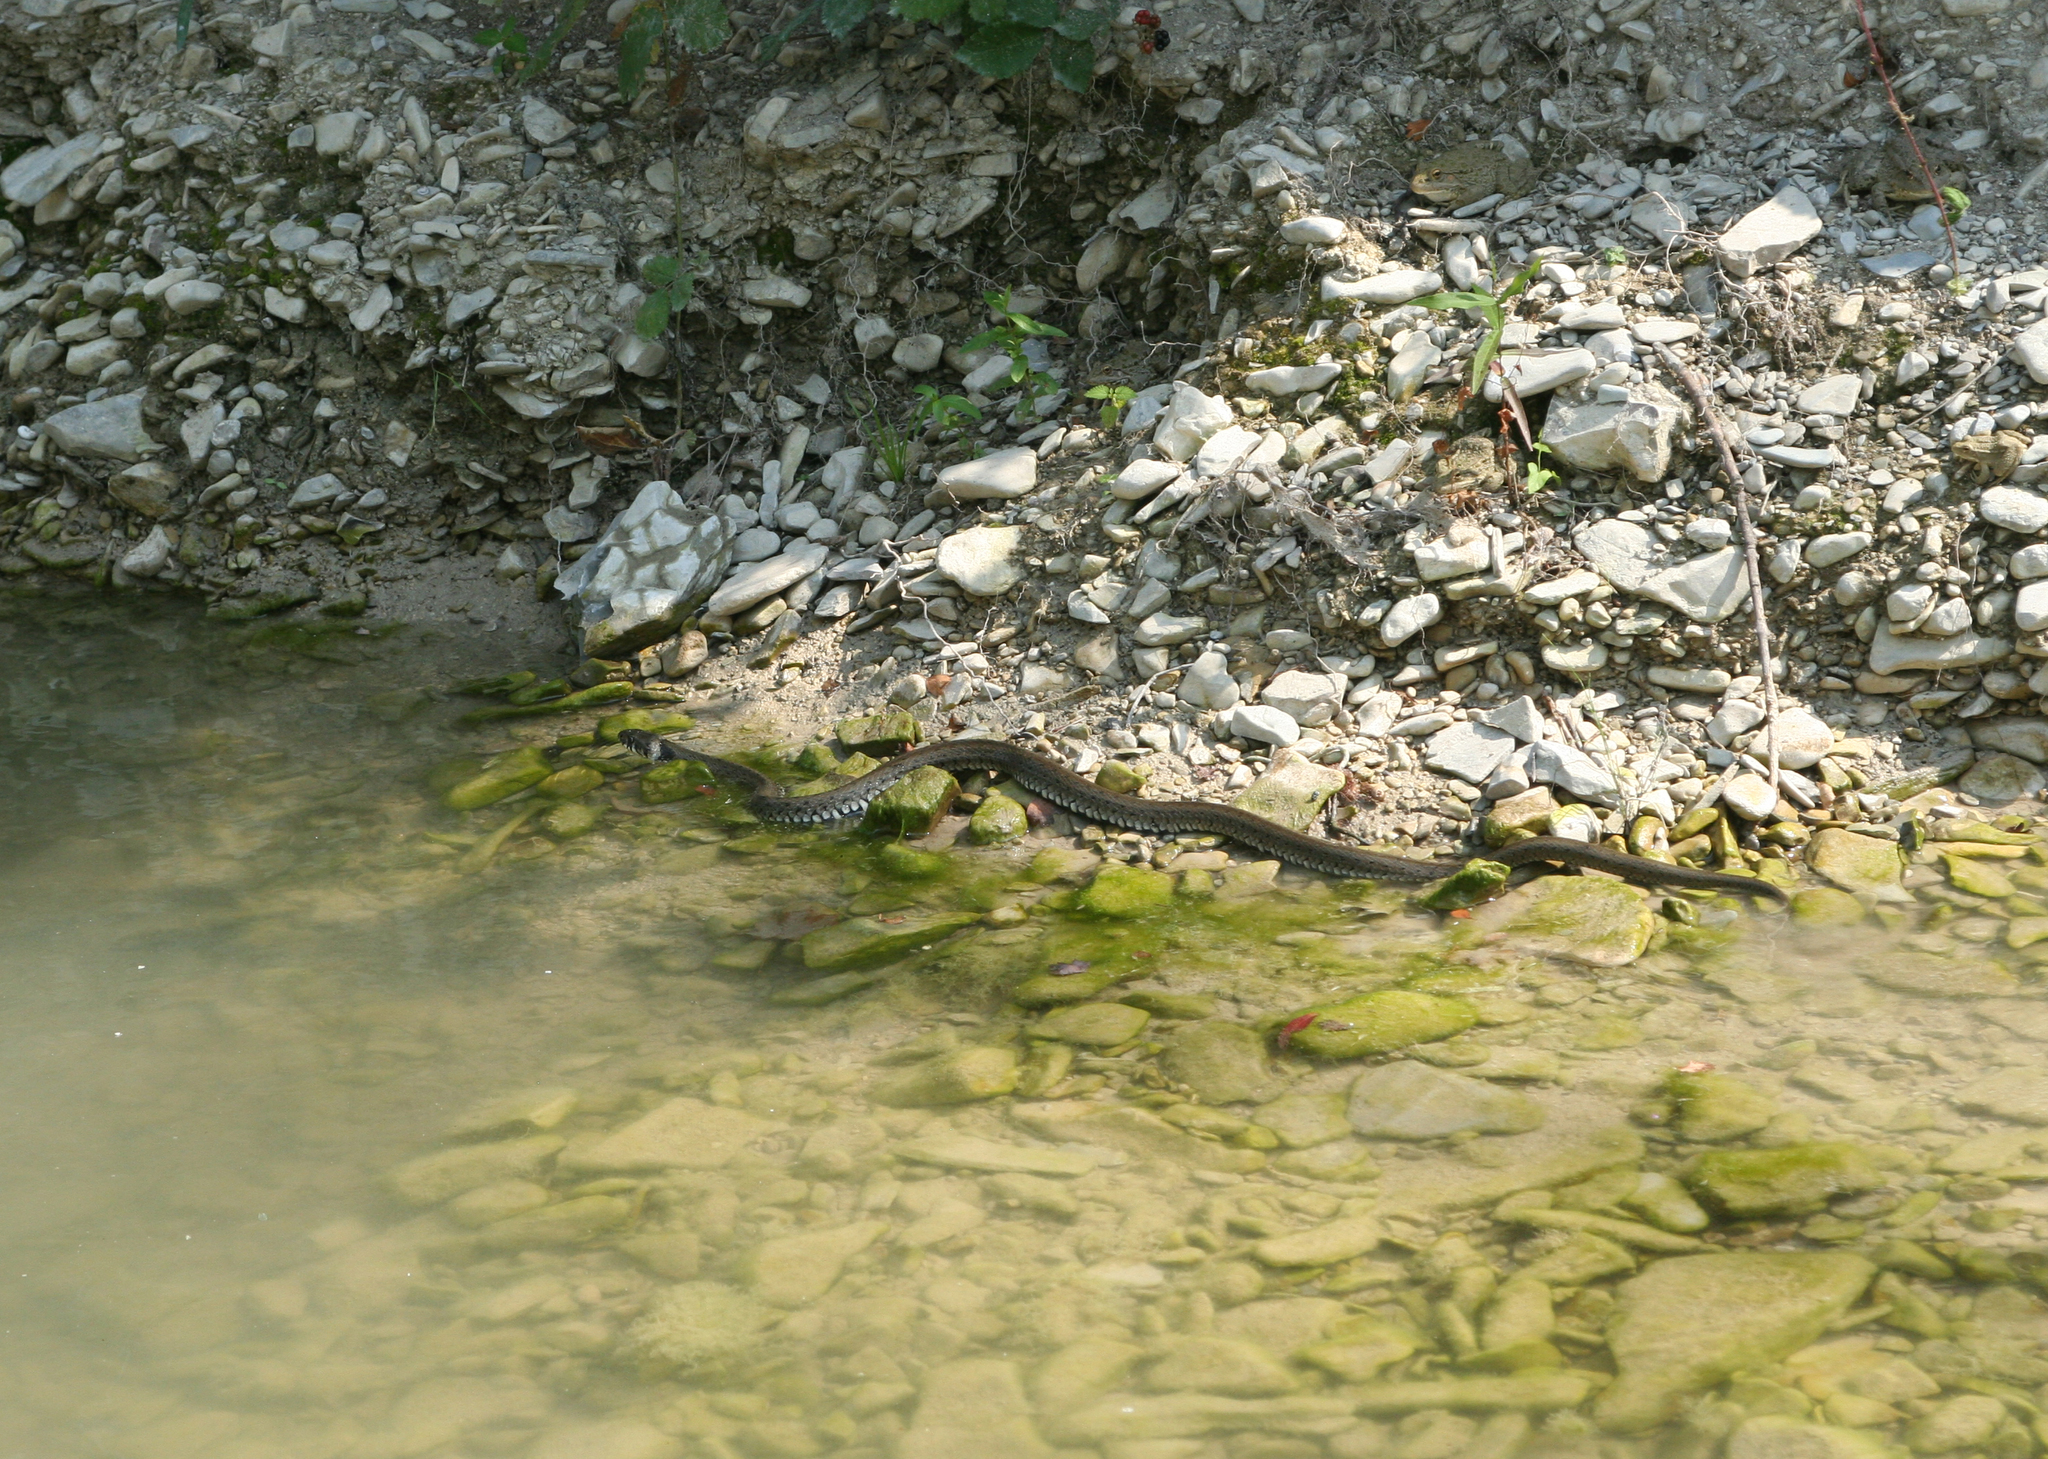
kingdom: Animalia
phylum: Chordata
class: Squamata
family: Colubridae
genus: Natrix
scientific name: Natrix natrix
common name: Grass snake
